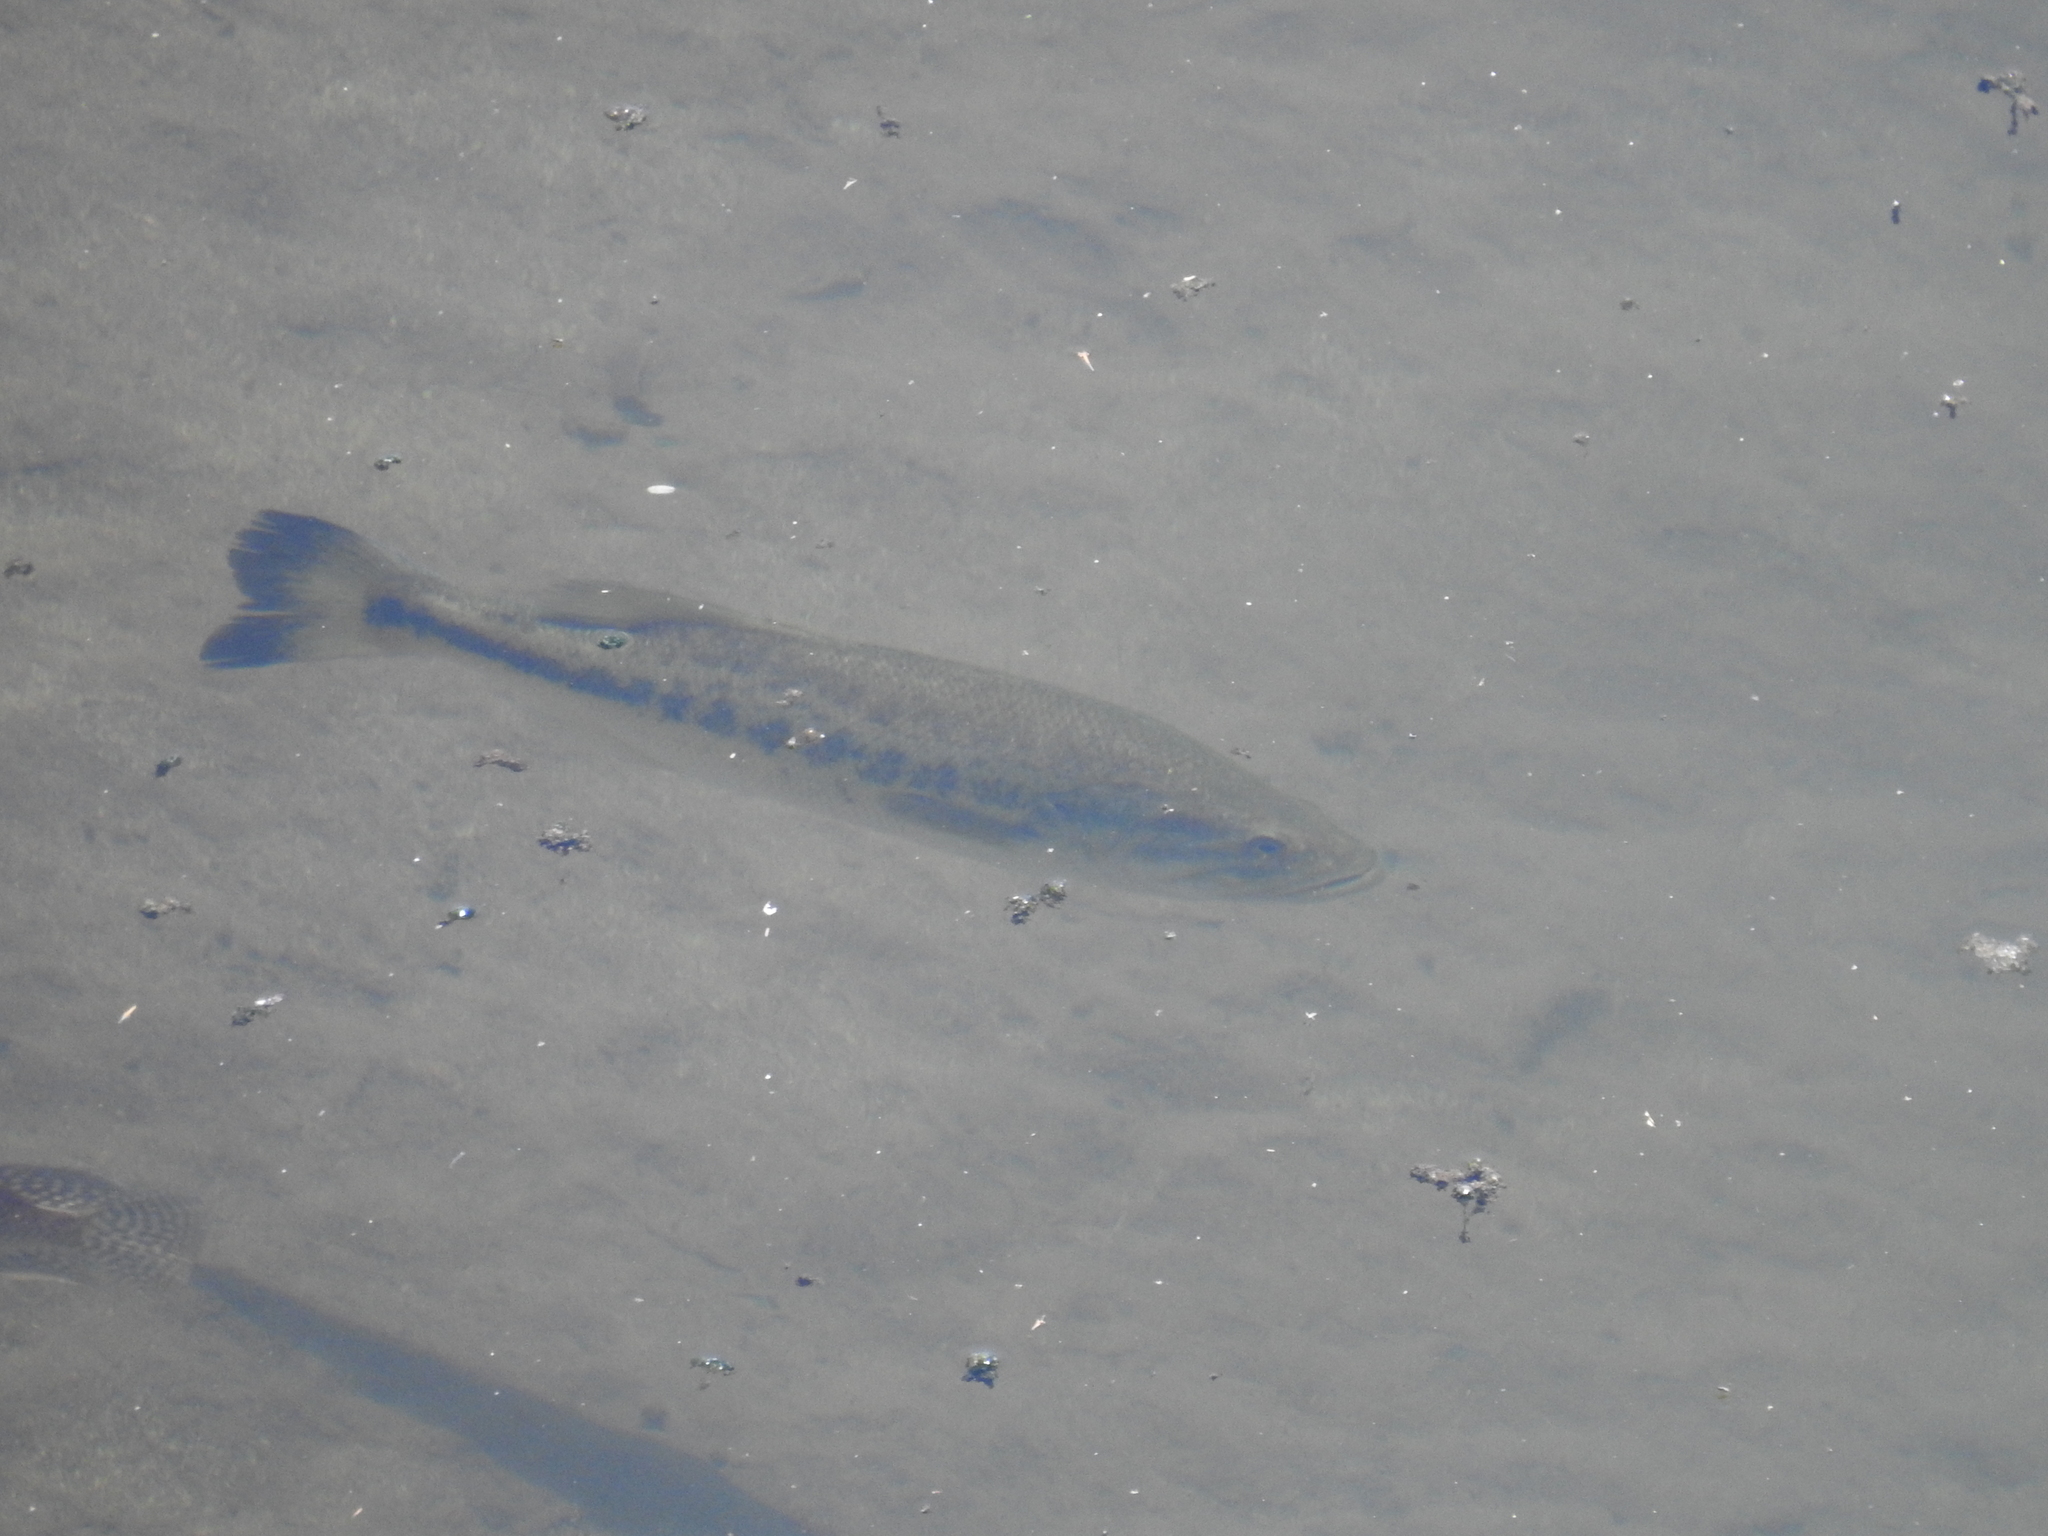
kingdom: Animalia
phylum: Chordata
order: Perciformes
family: Centrarchidae
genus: Micropterus
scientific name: Micropterus
